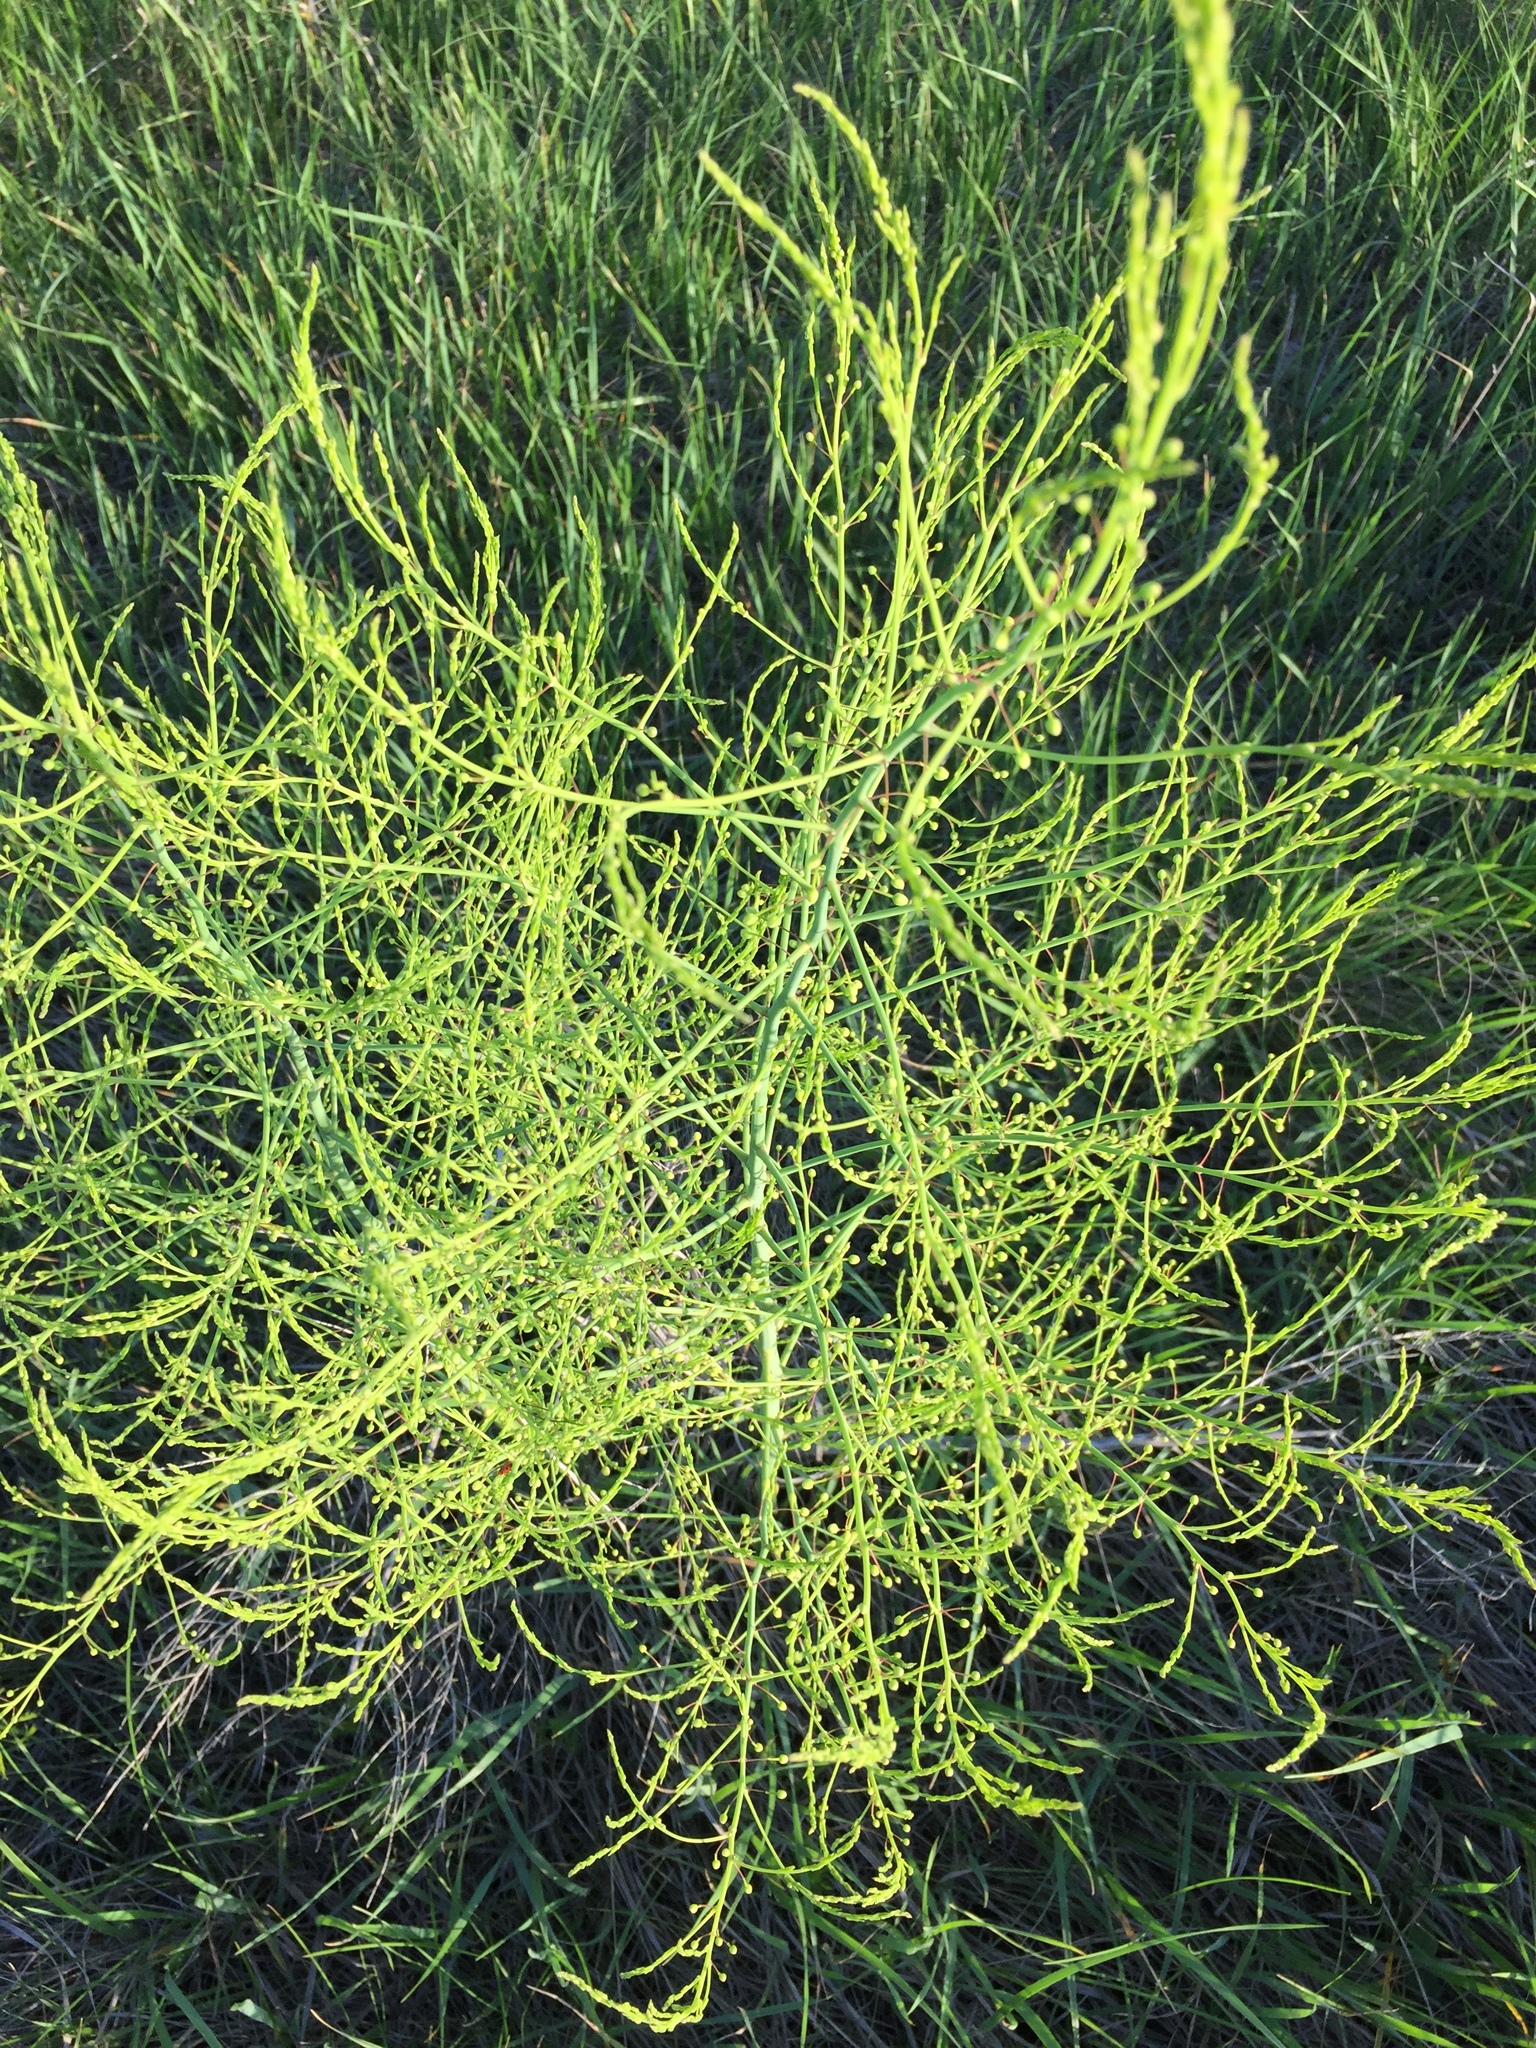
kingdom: Plantae
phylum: Tracheophyta
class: Liliopsida
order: Asparagales
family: Asparagaceae
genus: Asparagus
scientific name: Asparagus officinalis
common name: Garden asparagus
